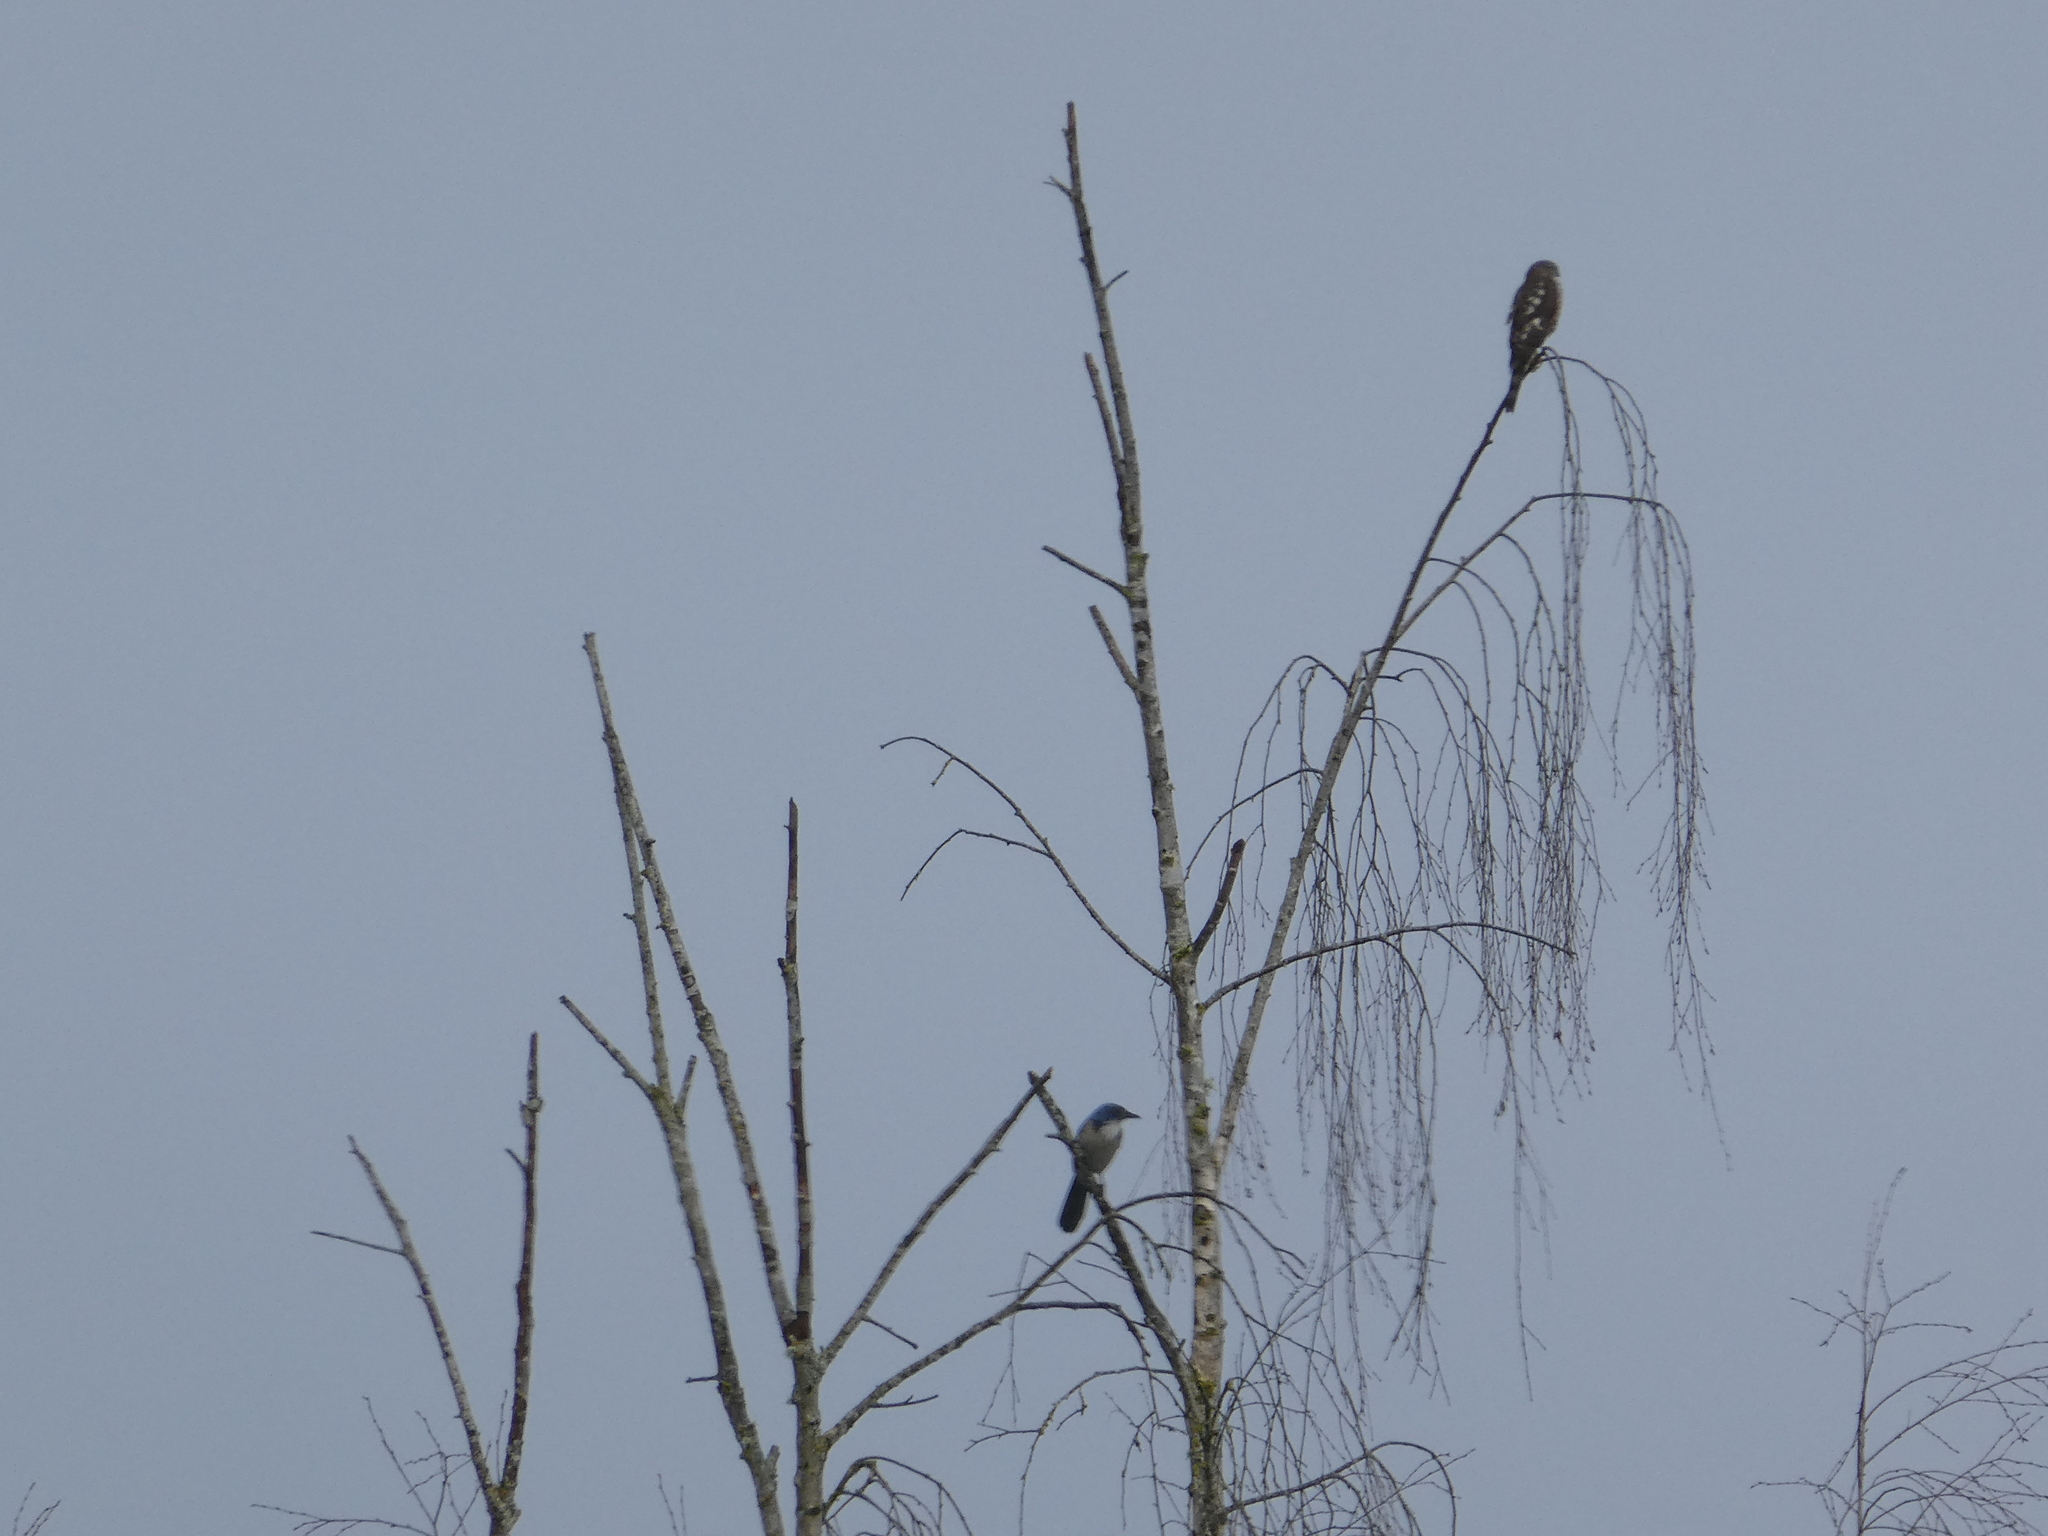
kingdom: Animalia
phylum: Chordata
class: Aves
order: Accipitriformes
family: Accipitridae
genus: Accipiter
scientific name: Accipiter striatus
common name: Sharp-shinned hawk
